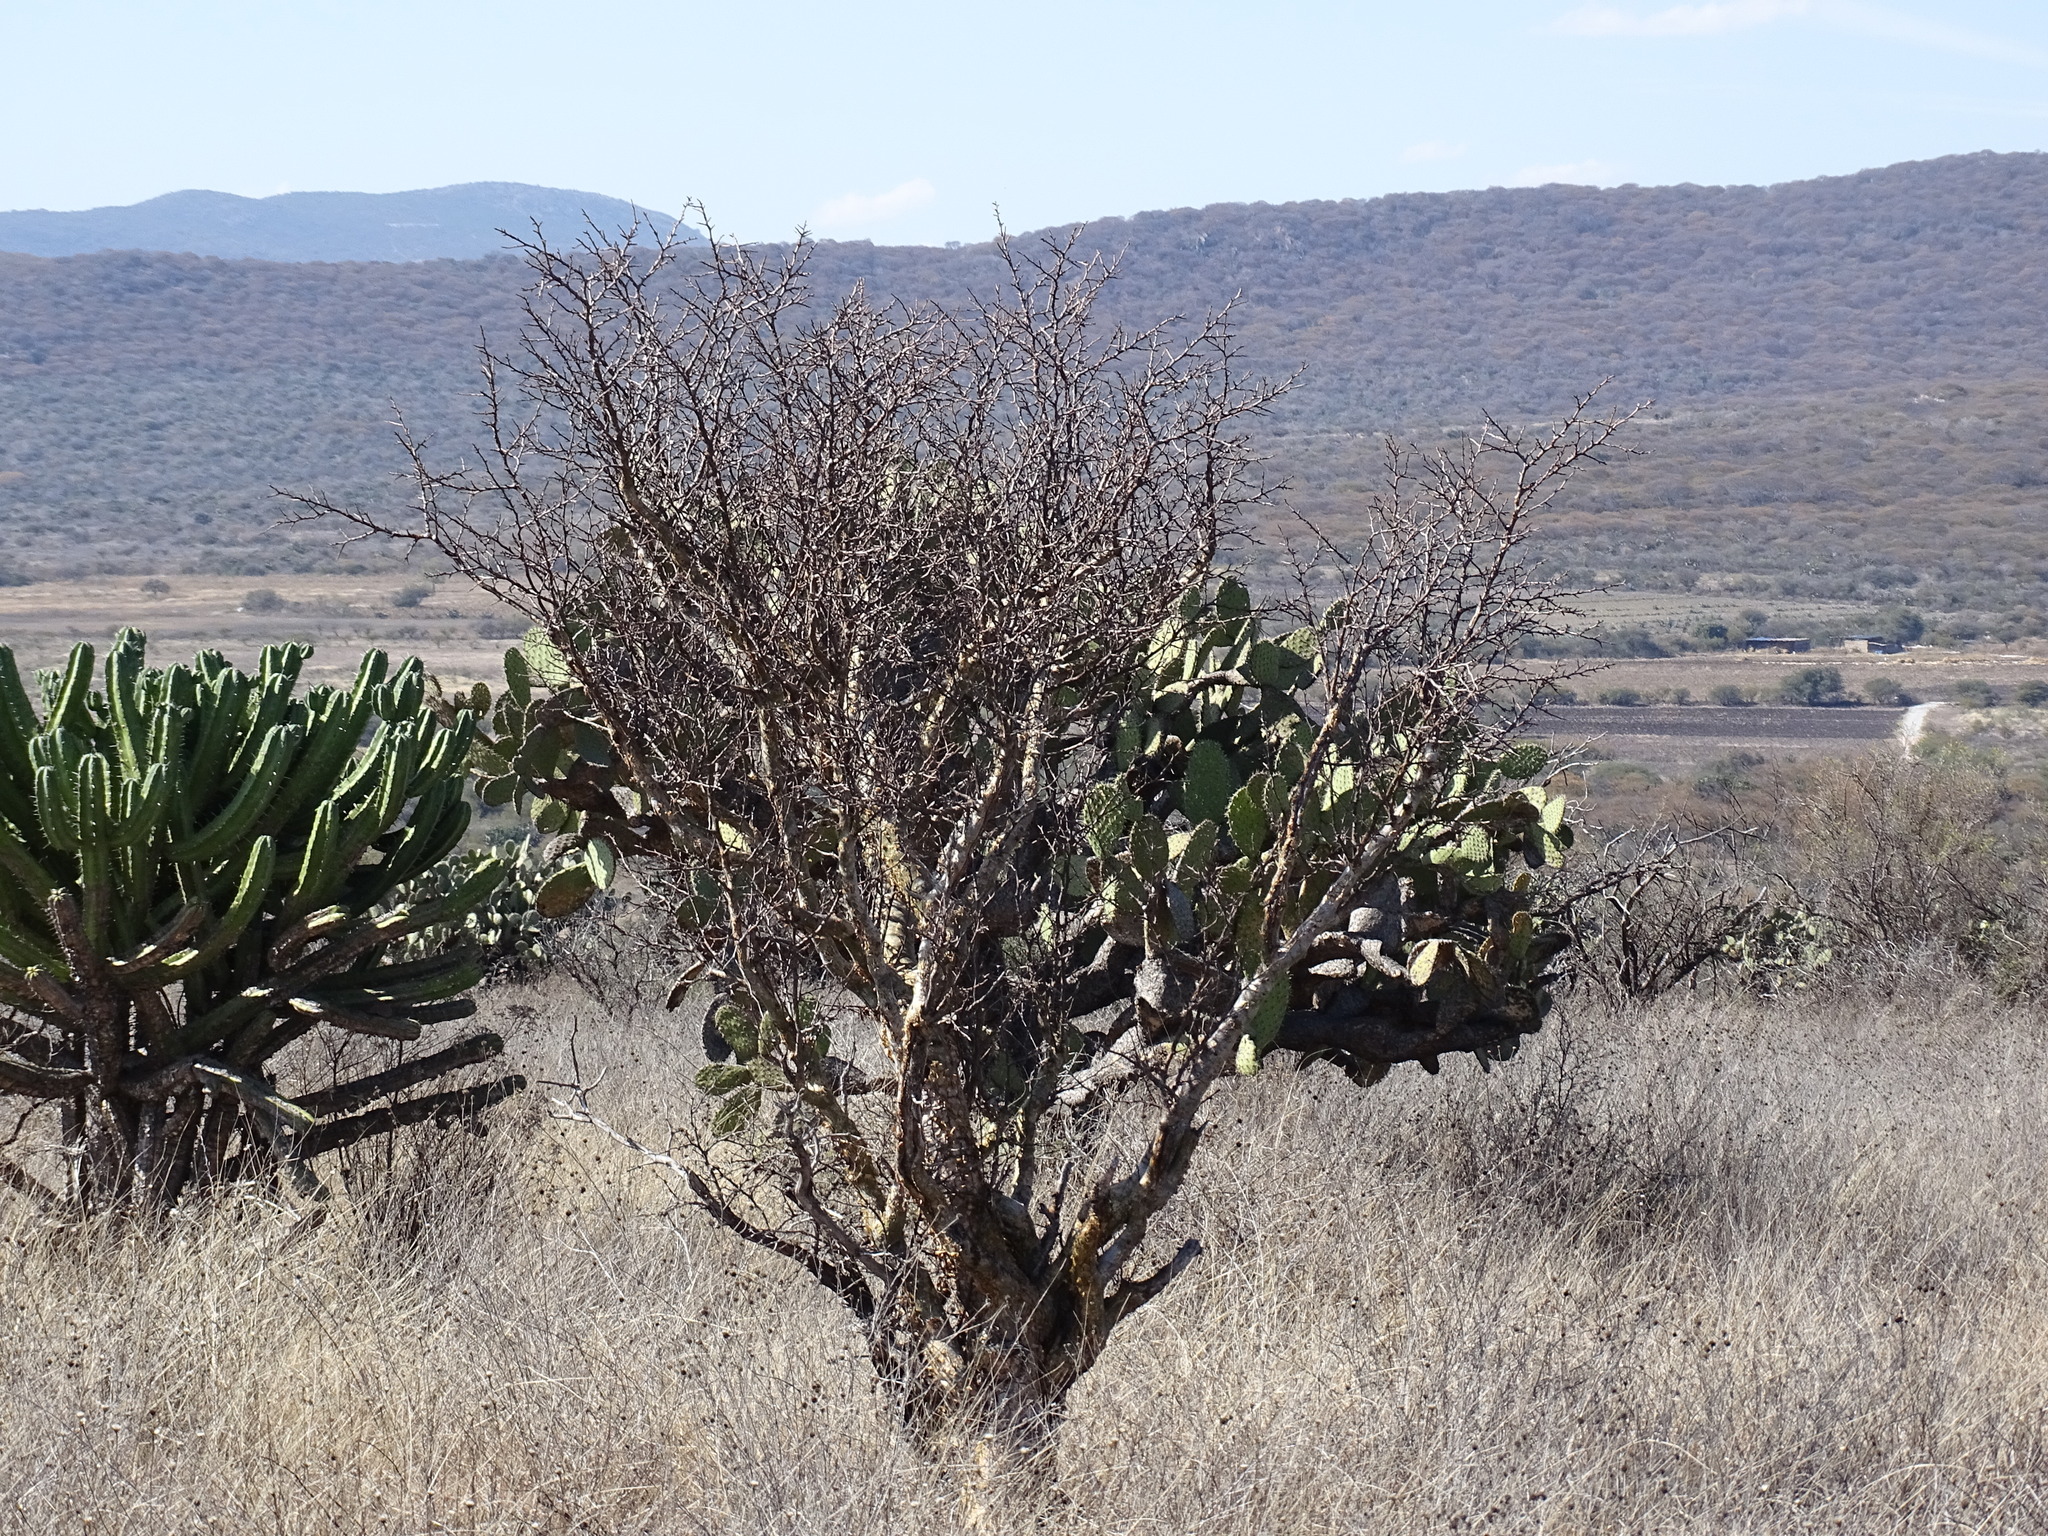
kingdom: Plantae
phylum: Tracheophyta
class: Magnoliopsida
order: Sapindales
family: Burseraceae
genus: Bursera
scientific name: Bursera fagaroides
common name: Elephant tree
